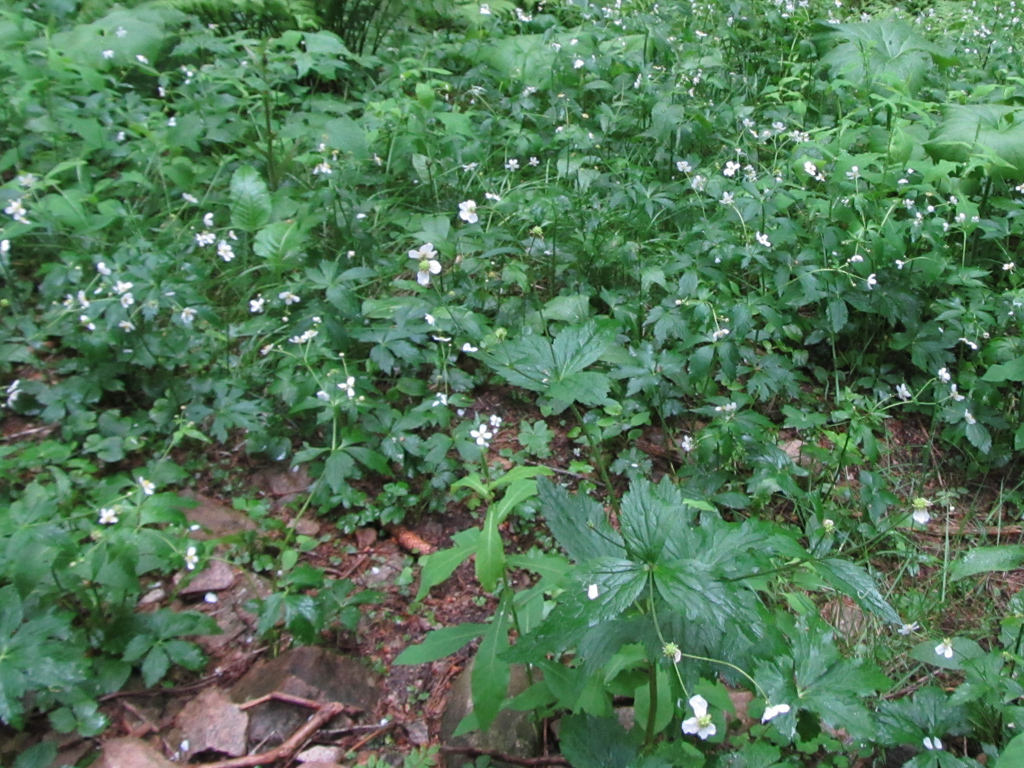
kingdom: Plantae
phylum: Tracheophyta
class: Magnoliopsida
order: Ranunculales
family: Ranunculaceae
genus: Ranunculus
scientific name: Ranunculus aconitifolius
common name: Aconite-leaved buttercup
